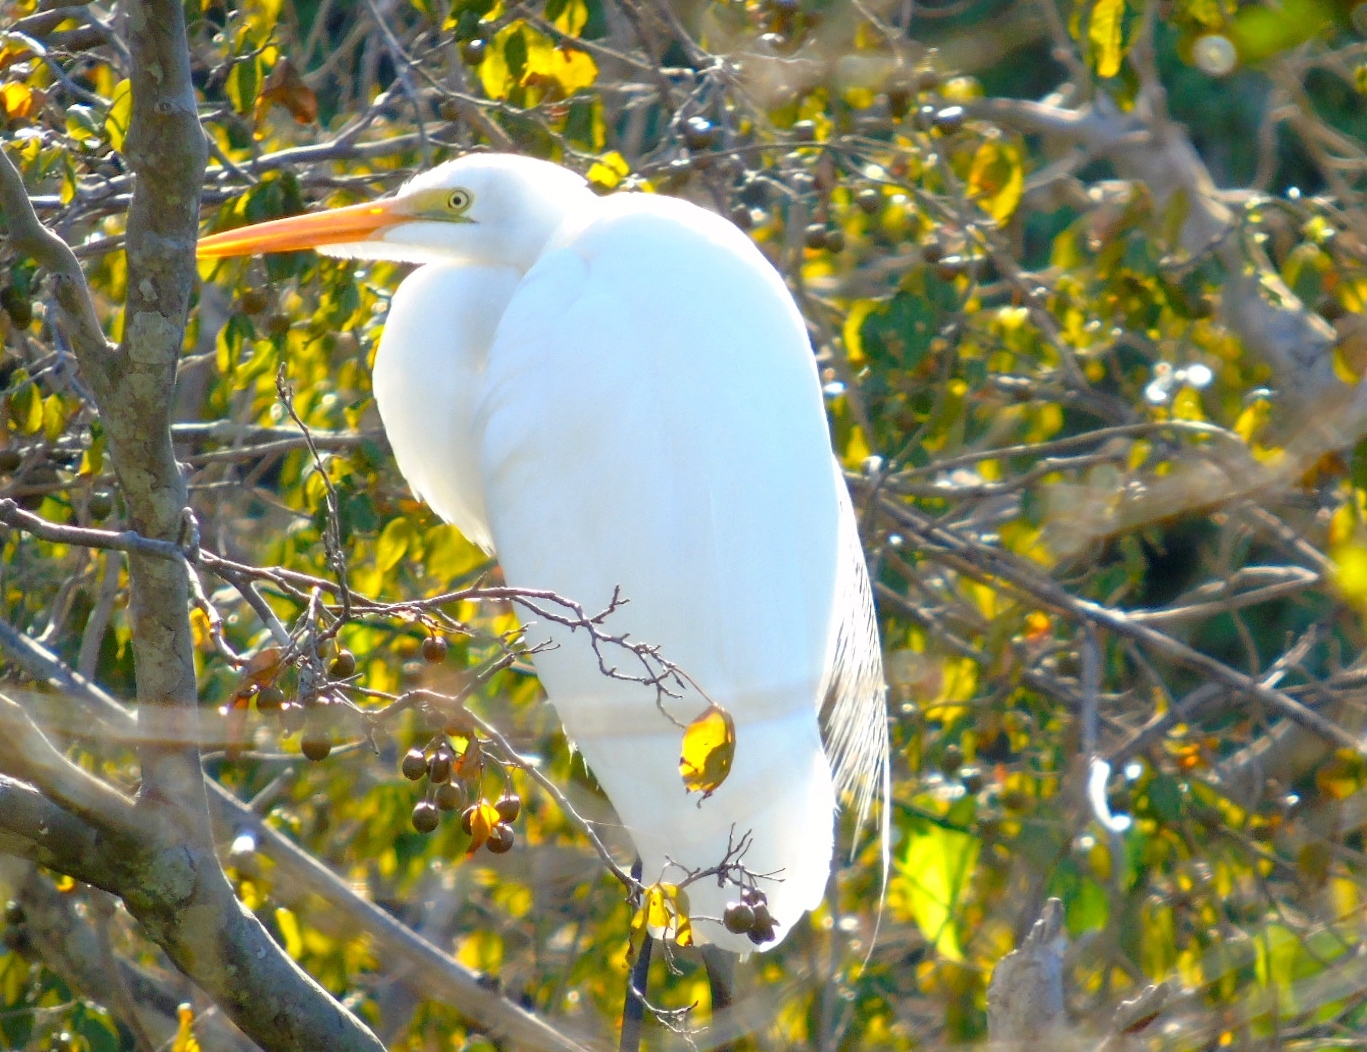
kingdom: Animalia
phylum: Chordata
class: Aves
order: Pelecaniformes
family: Ardeidae
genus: Ardea
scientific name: Ardea alba
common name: Great egret
